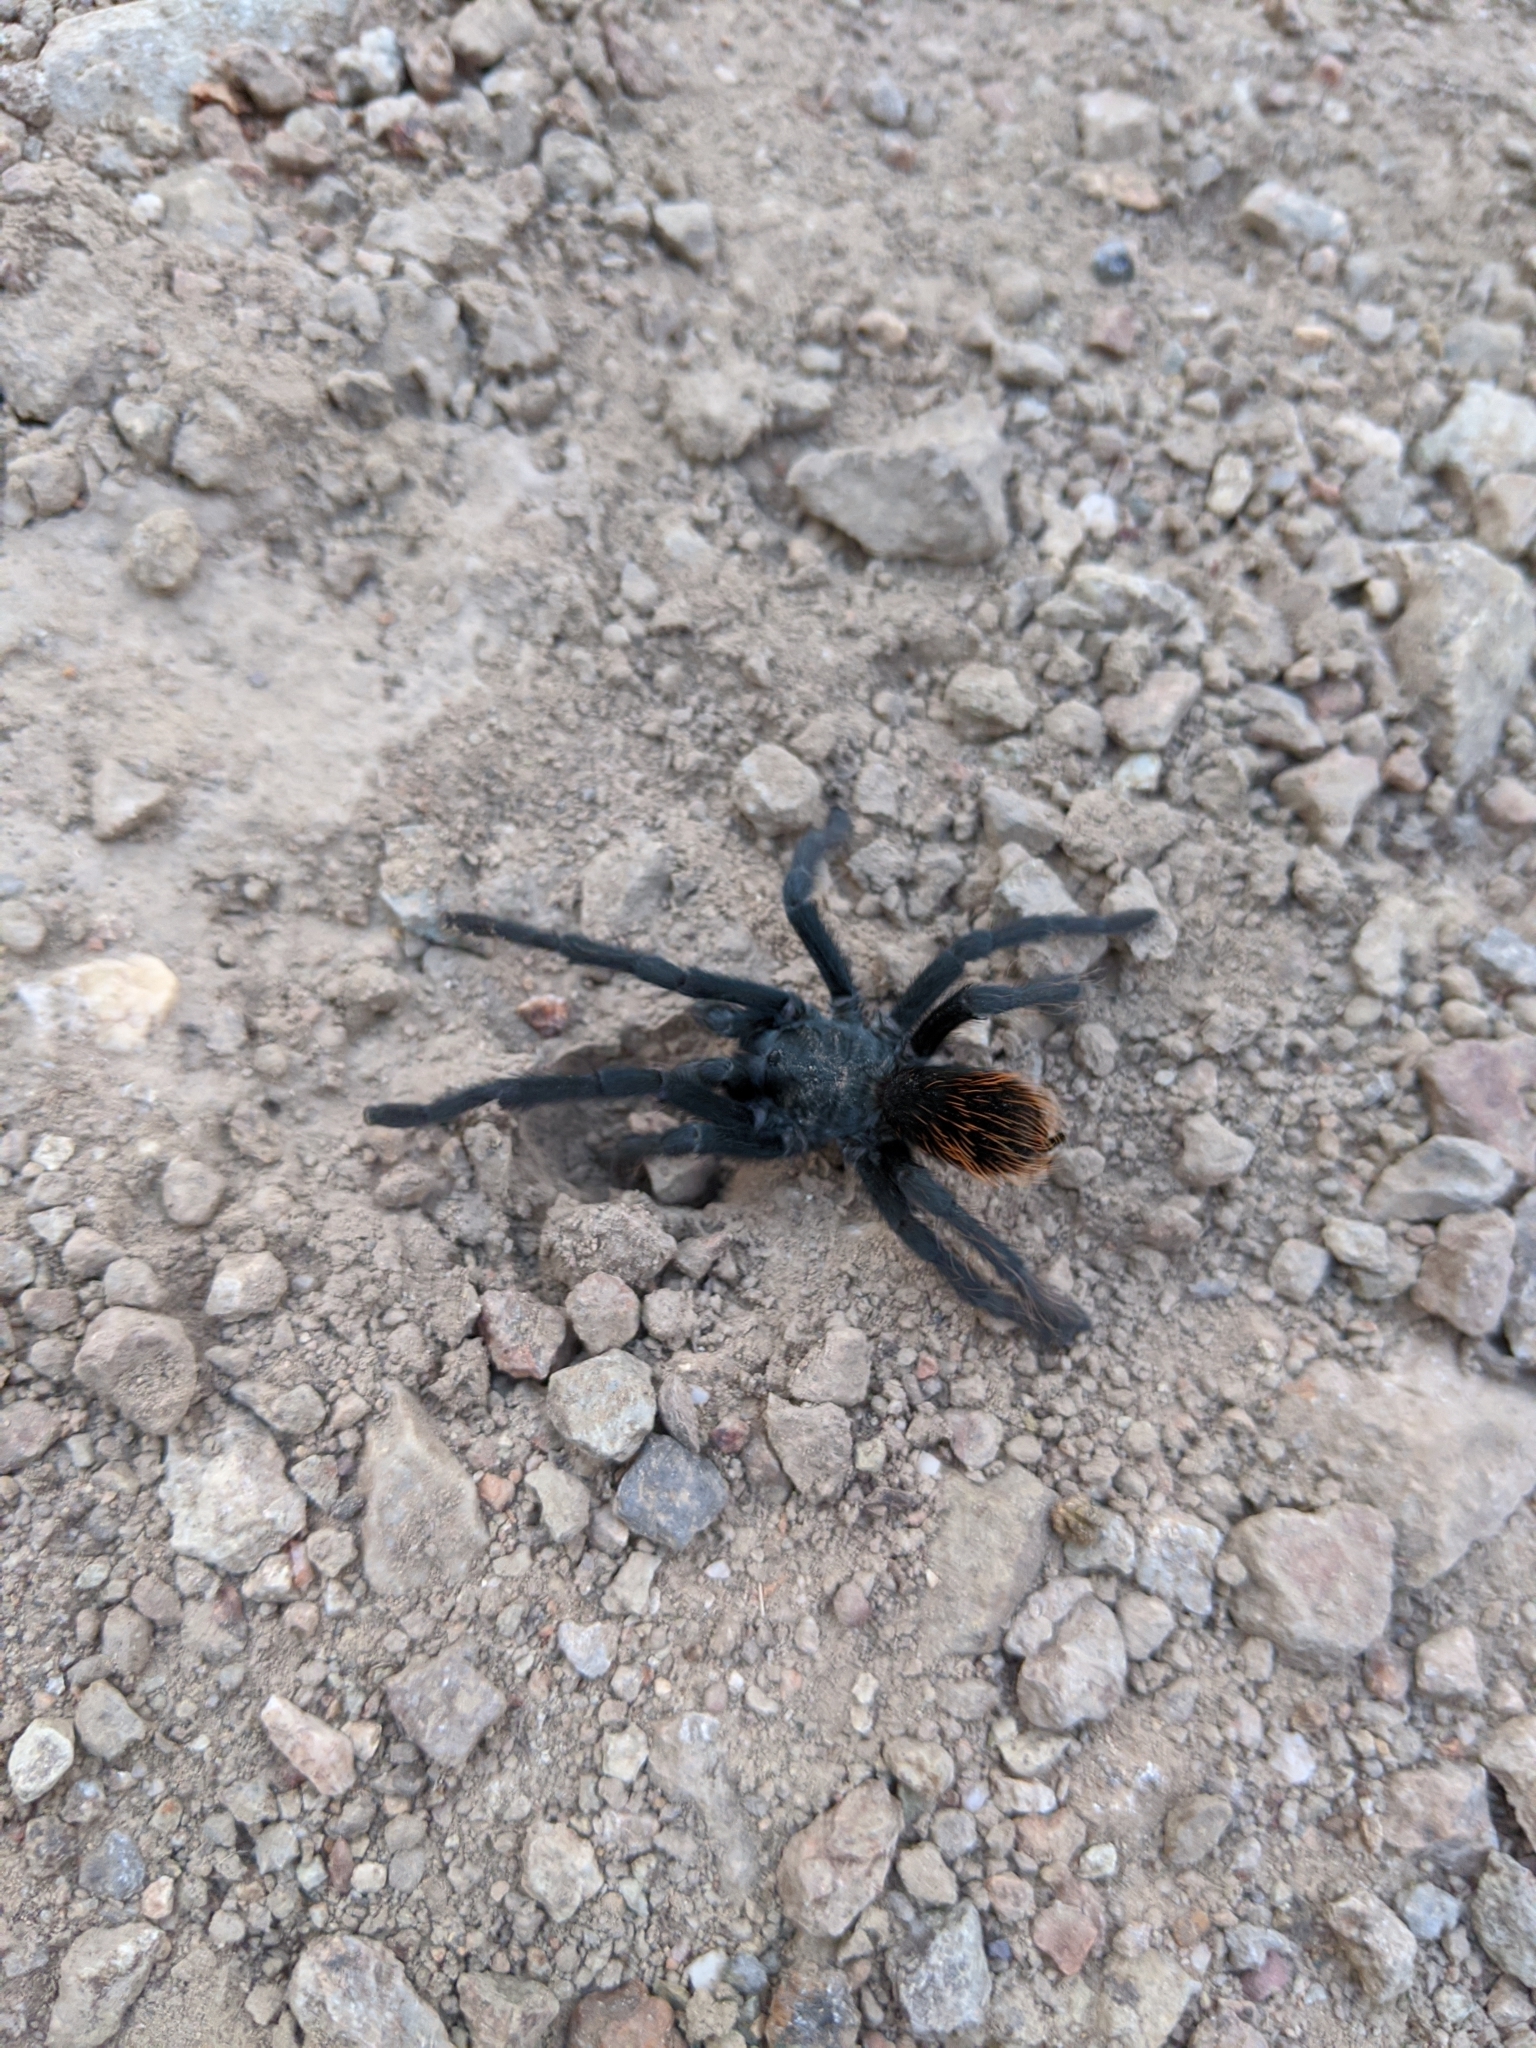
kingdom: Animalia
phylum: Arthropoda
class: Arachnida
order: Araneae
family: Theraphosidae
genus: Aphonopelma
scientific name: Aphonopelma madera
